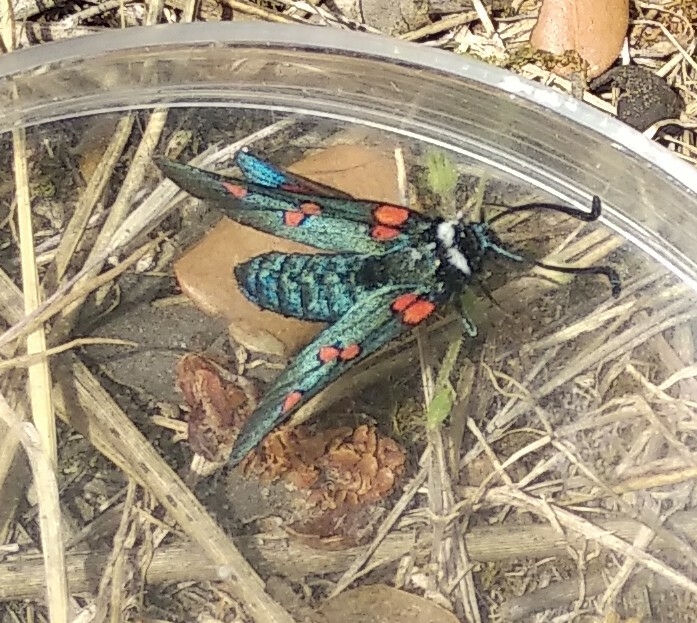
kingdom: Animalia
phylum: Arthropoda
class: Insecta
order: Lepidoptera
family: Zygaenidae
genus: Zygaena
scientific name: Zygaena lavandulae
